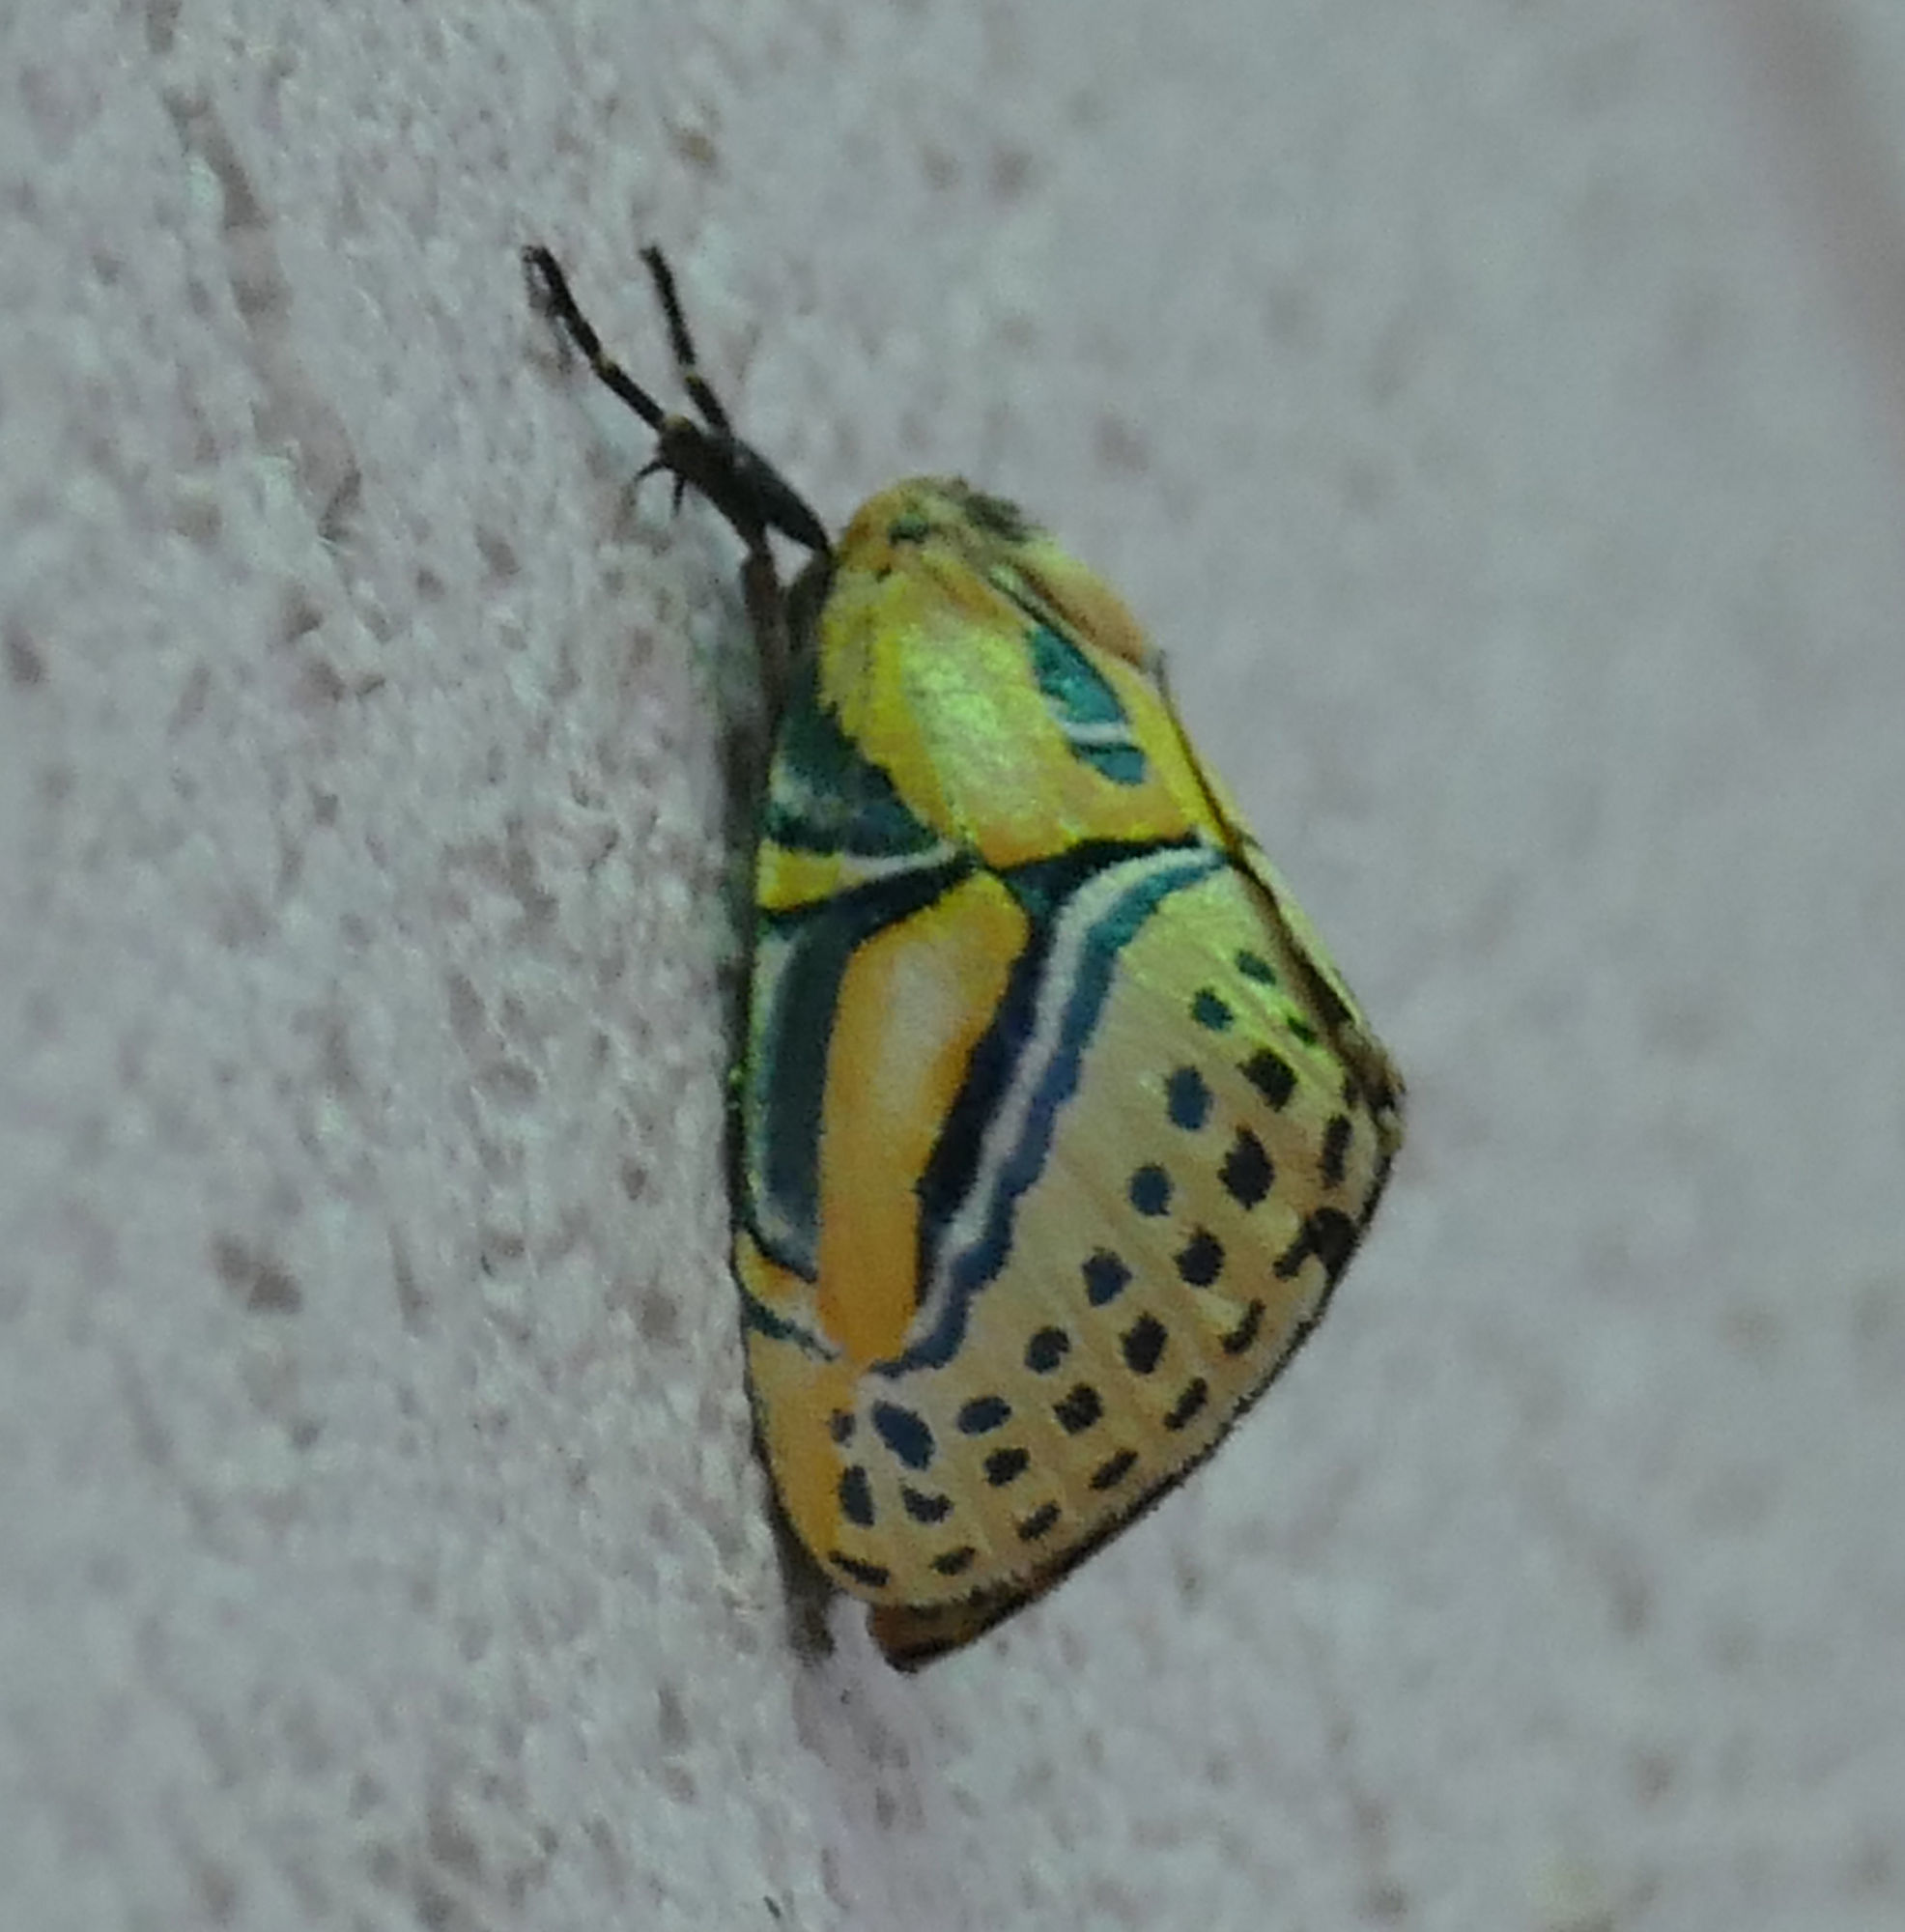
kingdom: Animalia
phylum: Arthropoda
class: Insecta
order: Lepidoptera
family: Erebidae
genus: Diphthera
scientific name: Diphthera festiva
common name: Hieroglyphic moth
